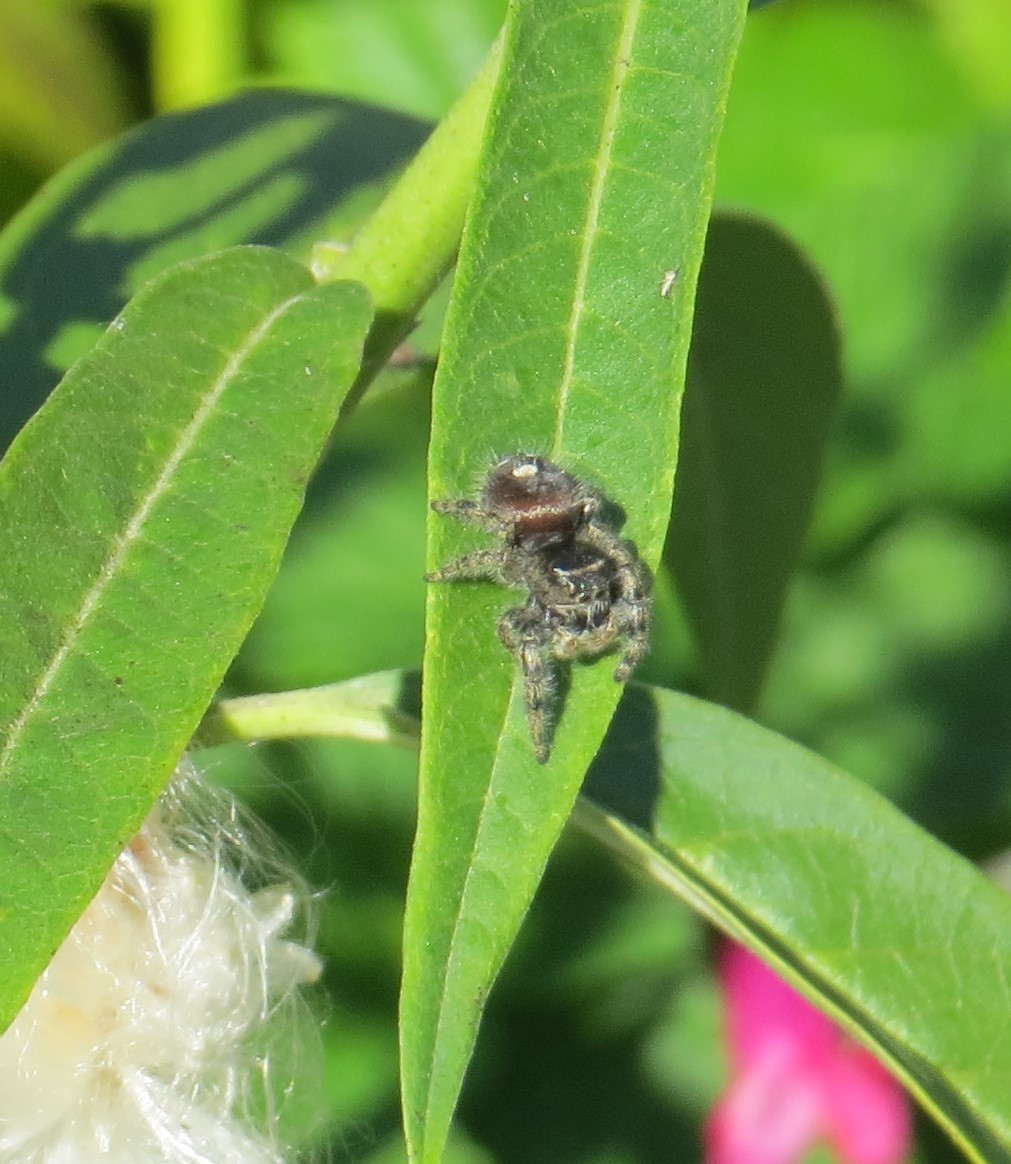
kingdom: Animalia
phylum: Arthropoda
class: Arachnida
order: Araneae
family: Salticidae
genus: Phidippus
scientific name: Phidippus audax
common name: Bold jumper
